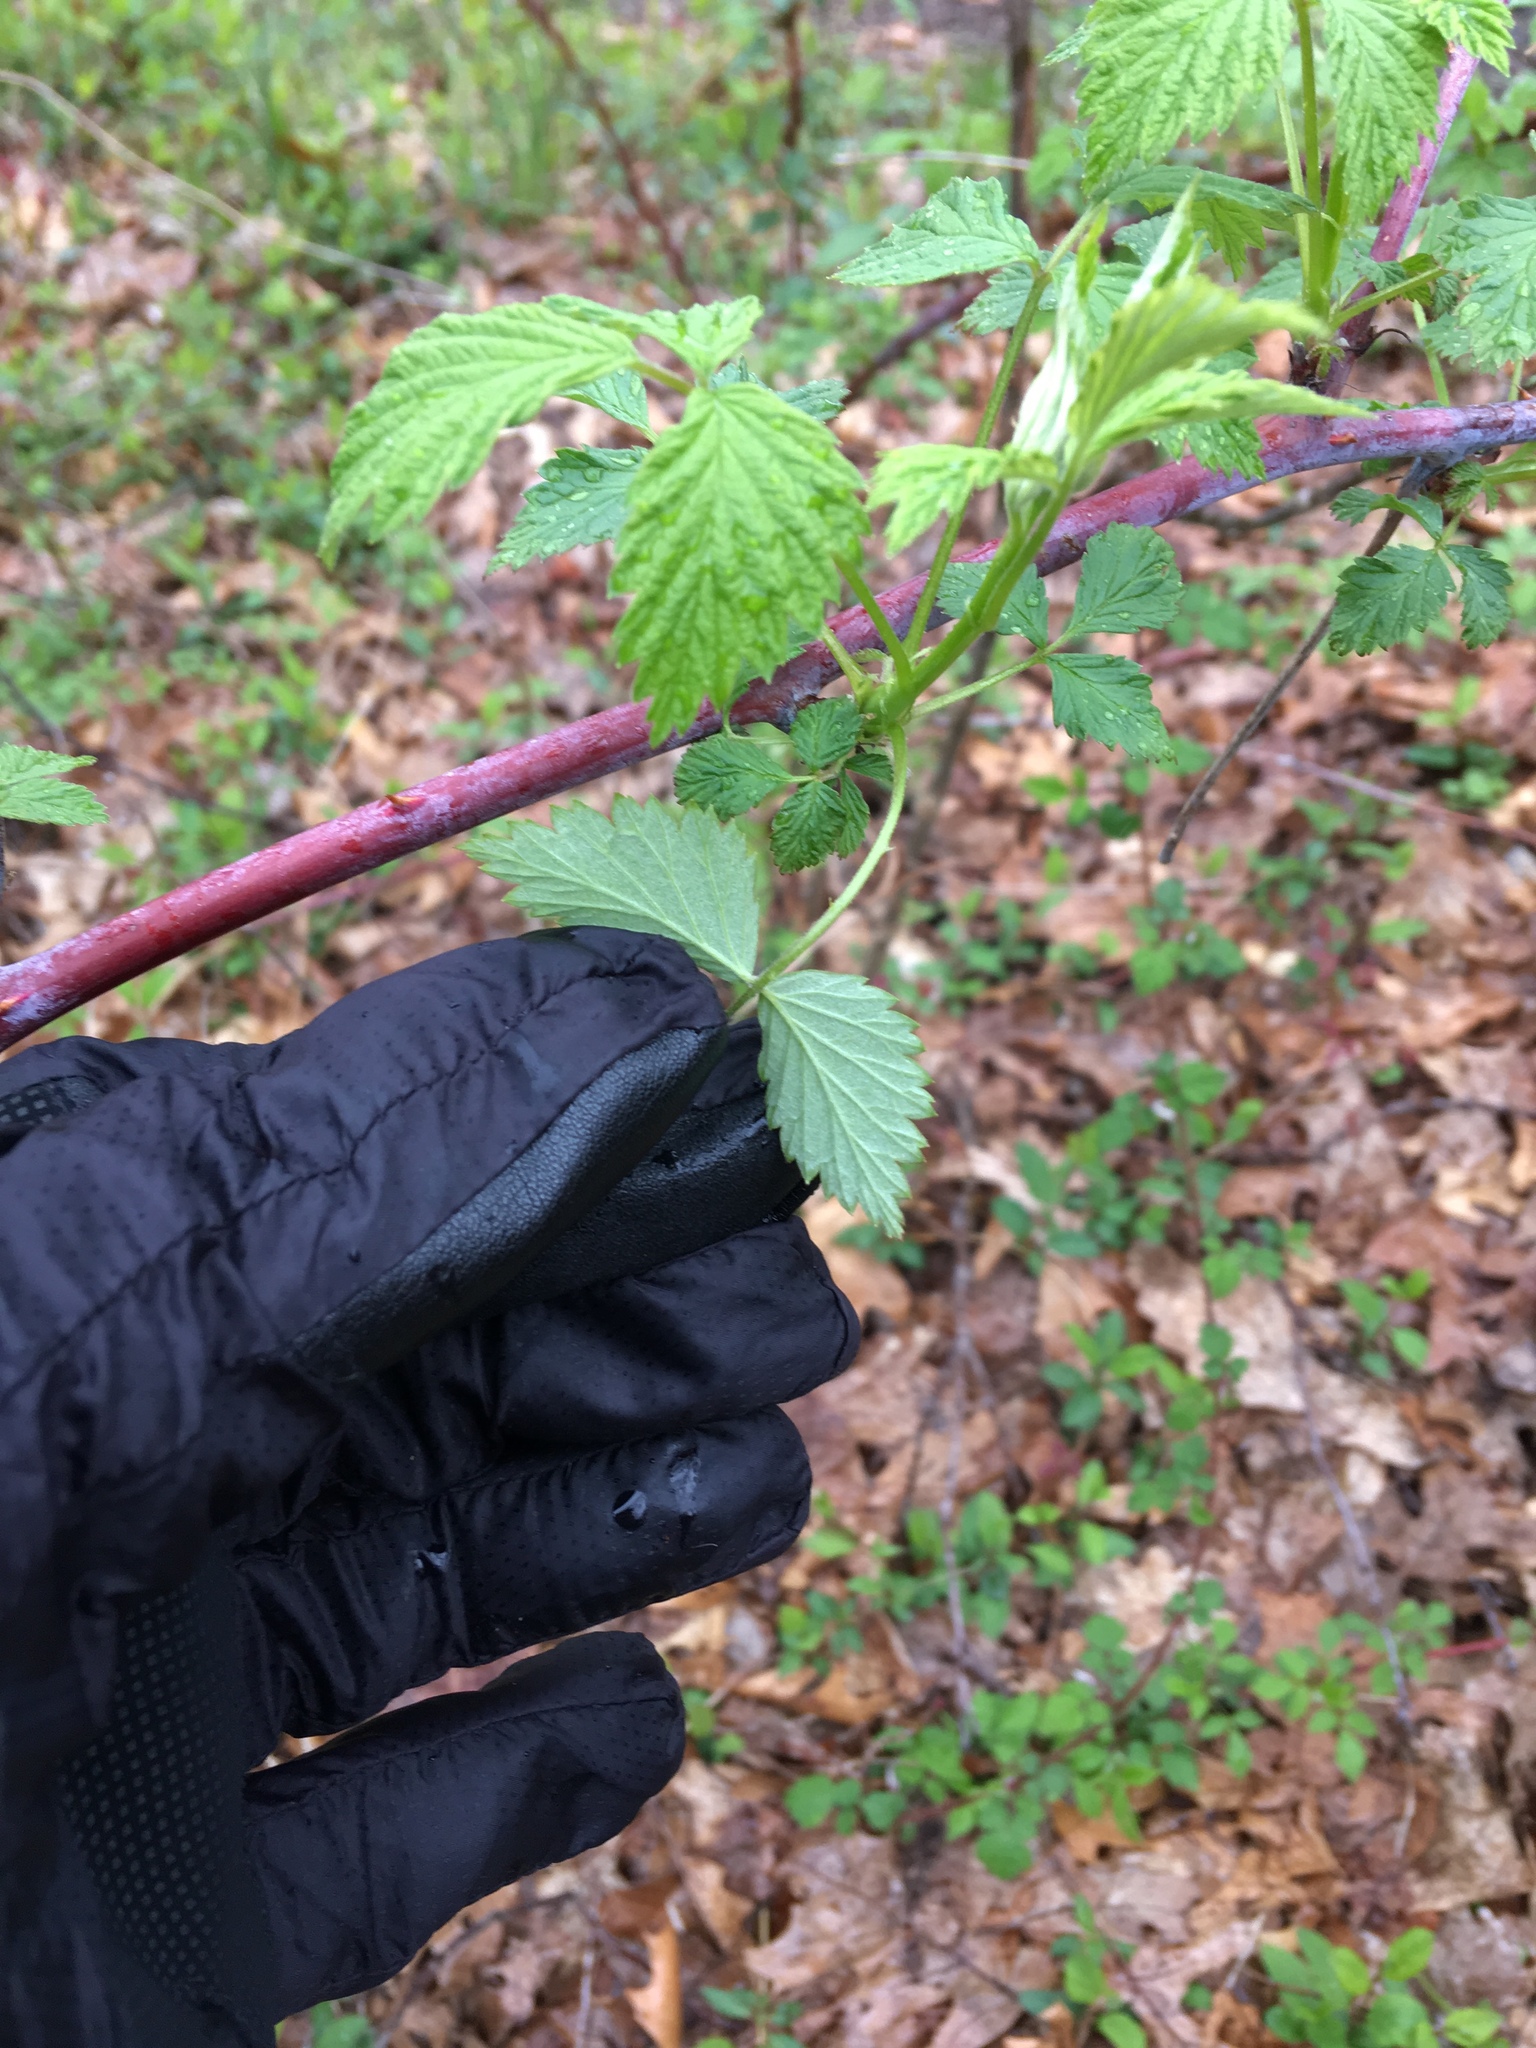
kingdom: Plantae
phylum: Tracheophyta
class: Magnoliopsida
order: Rosales
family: Rosaceae
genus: Rubus
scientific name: Rubus occidentalis
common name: Black raspberry
